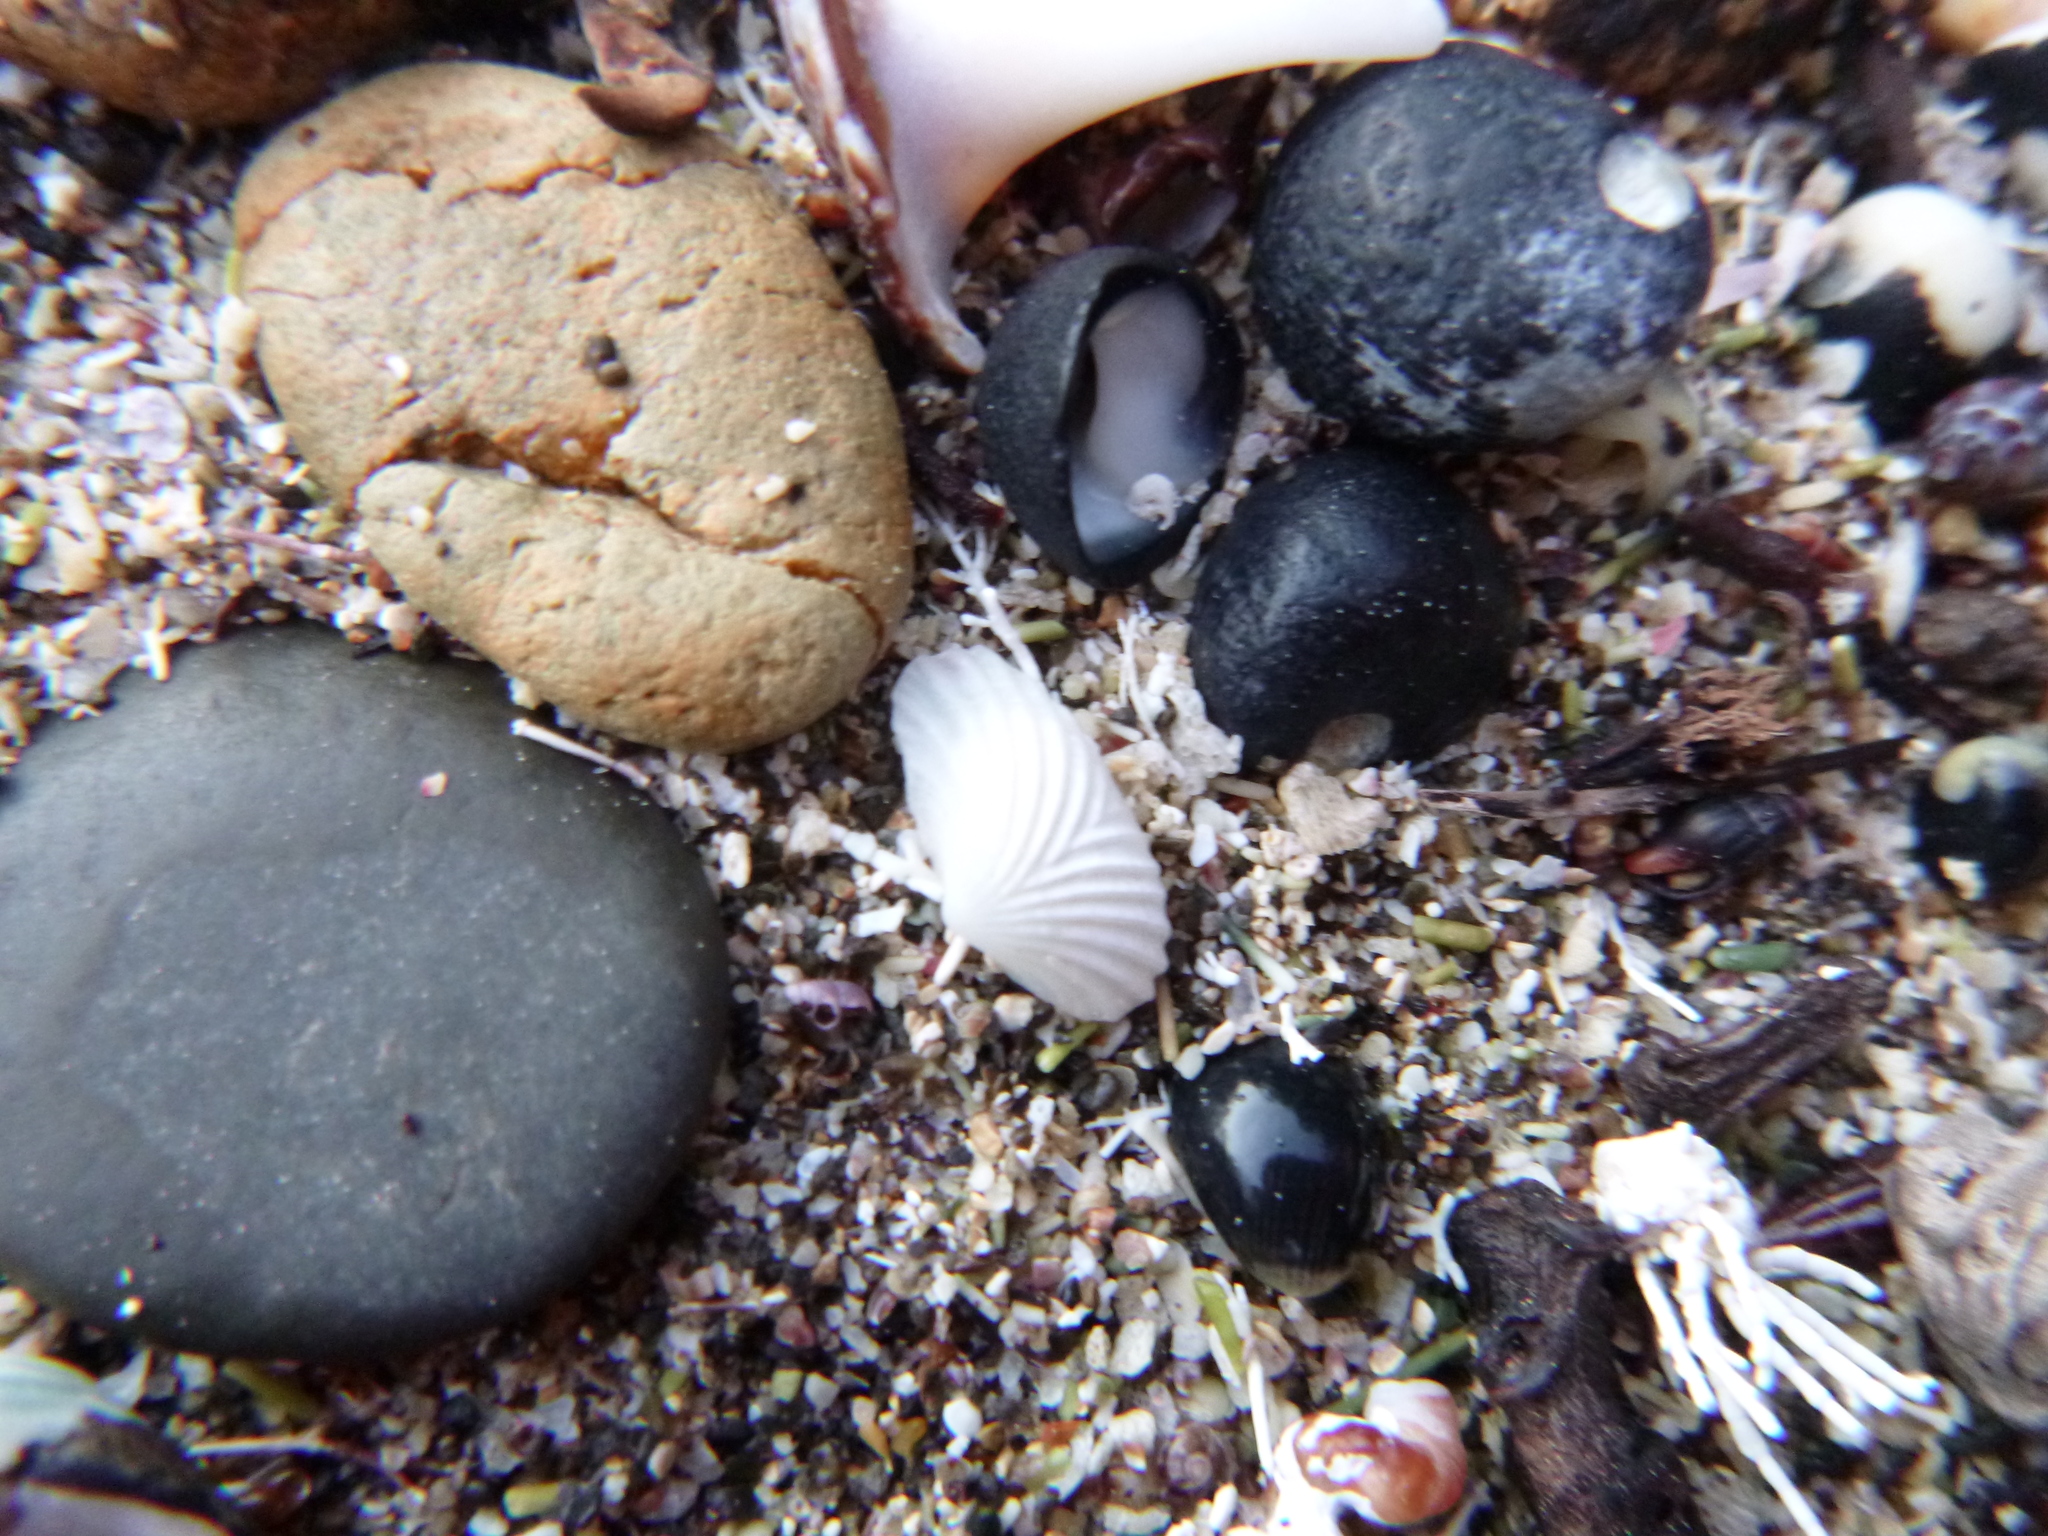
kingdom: Animalia
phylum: Mollusca
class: Bivalvia
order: Galeommatida
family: Lasaeidae
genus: Myllita
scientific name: Myllita stowei
